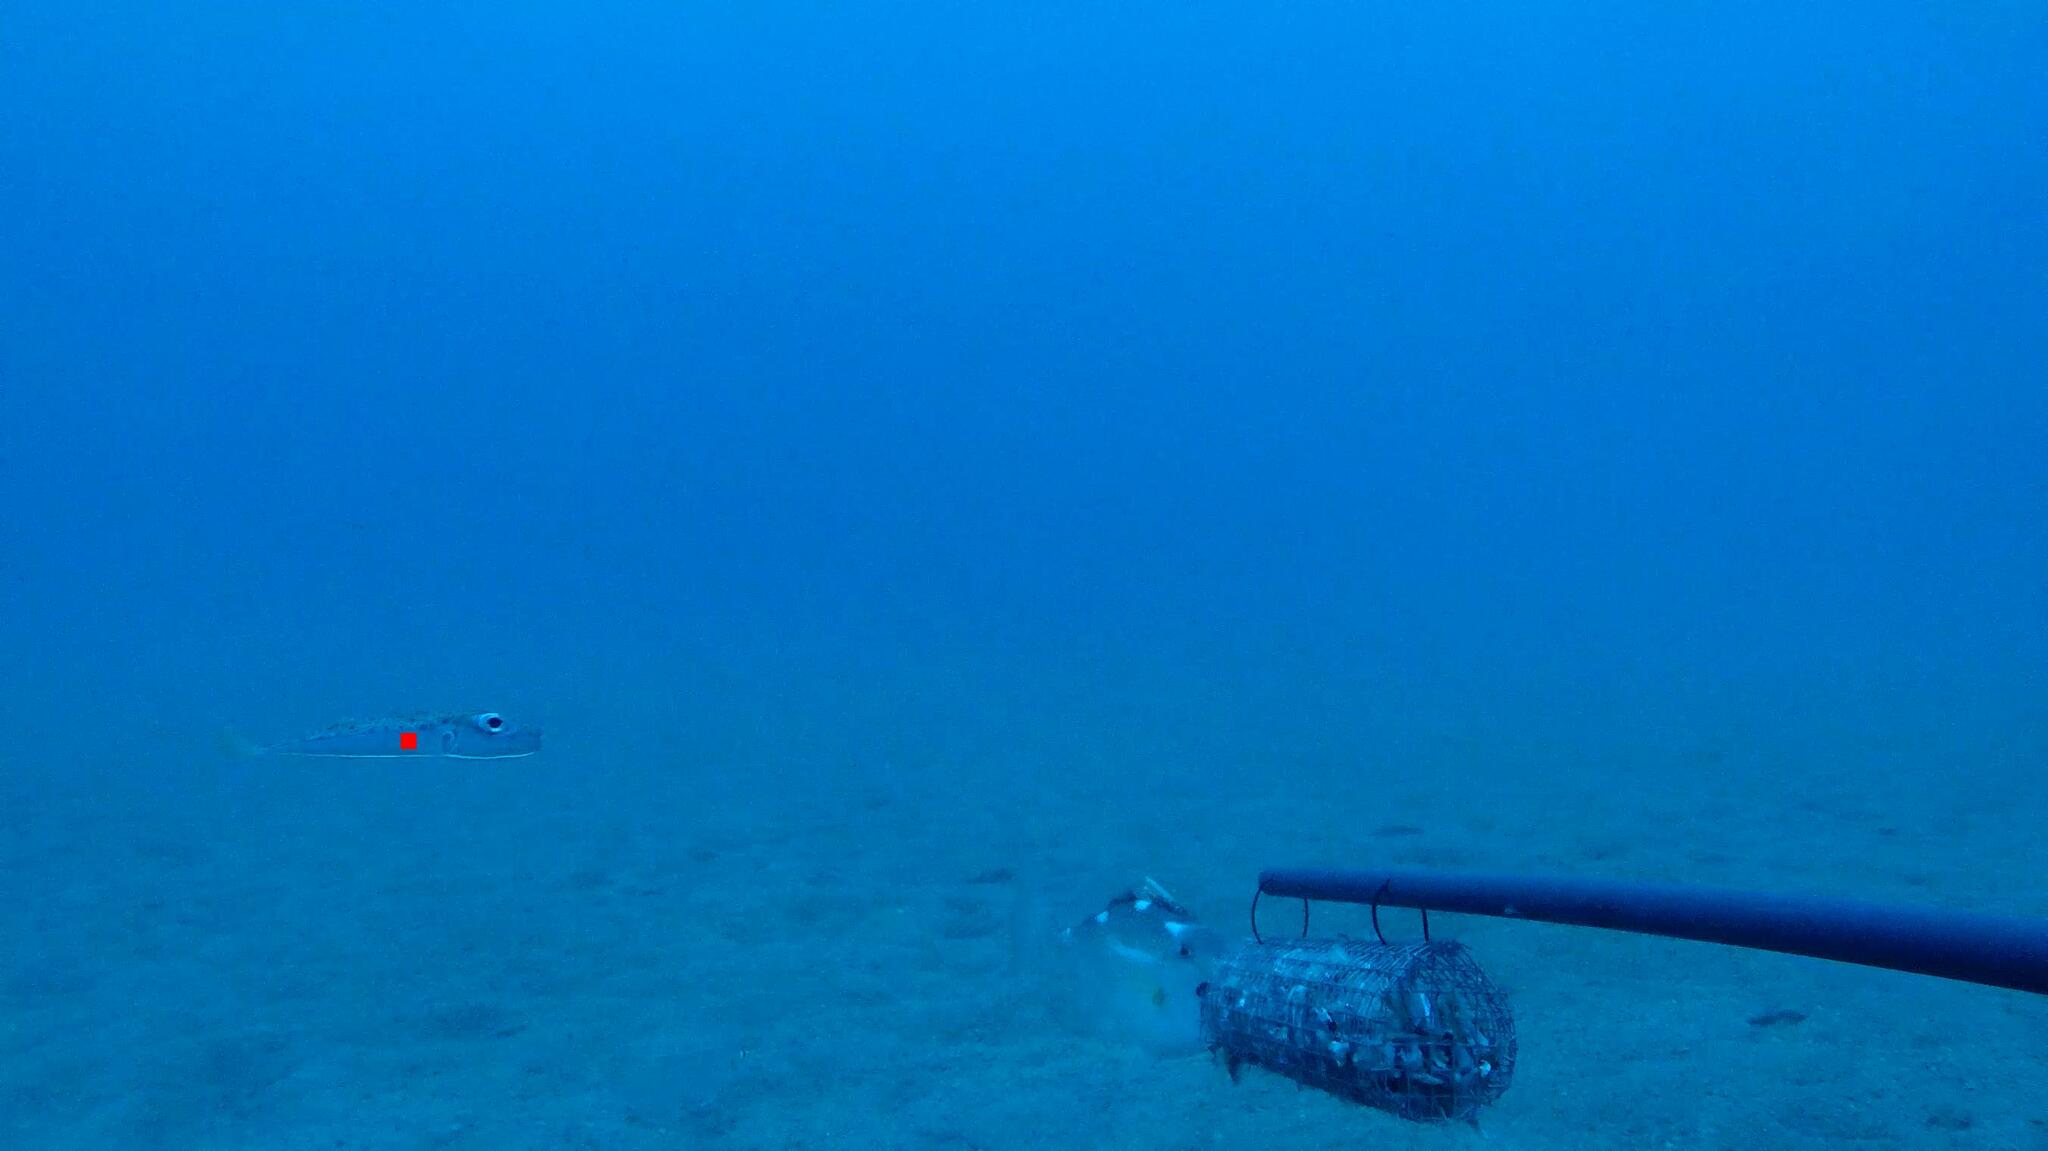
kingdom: Animalia
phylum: Chordata
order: Tetraodontiformes
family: Tetraodontidae
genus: Lagocephalus
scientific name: Lagocephalus suezensis
